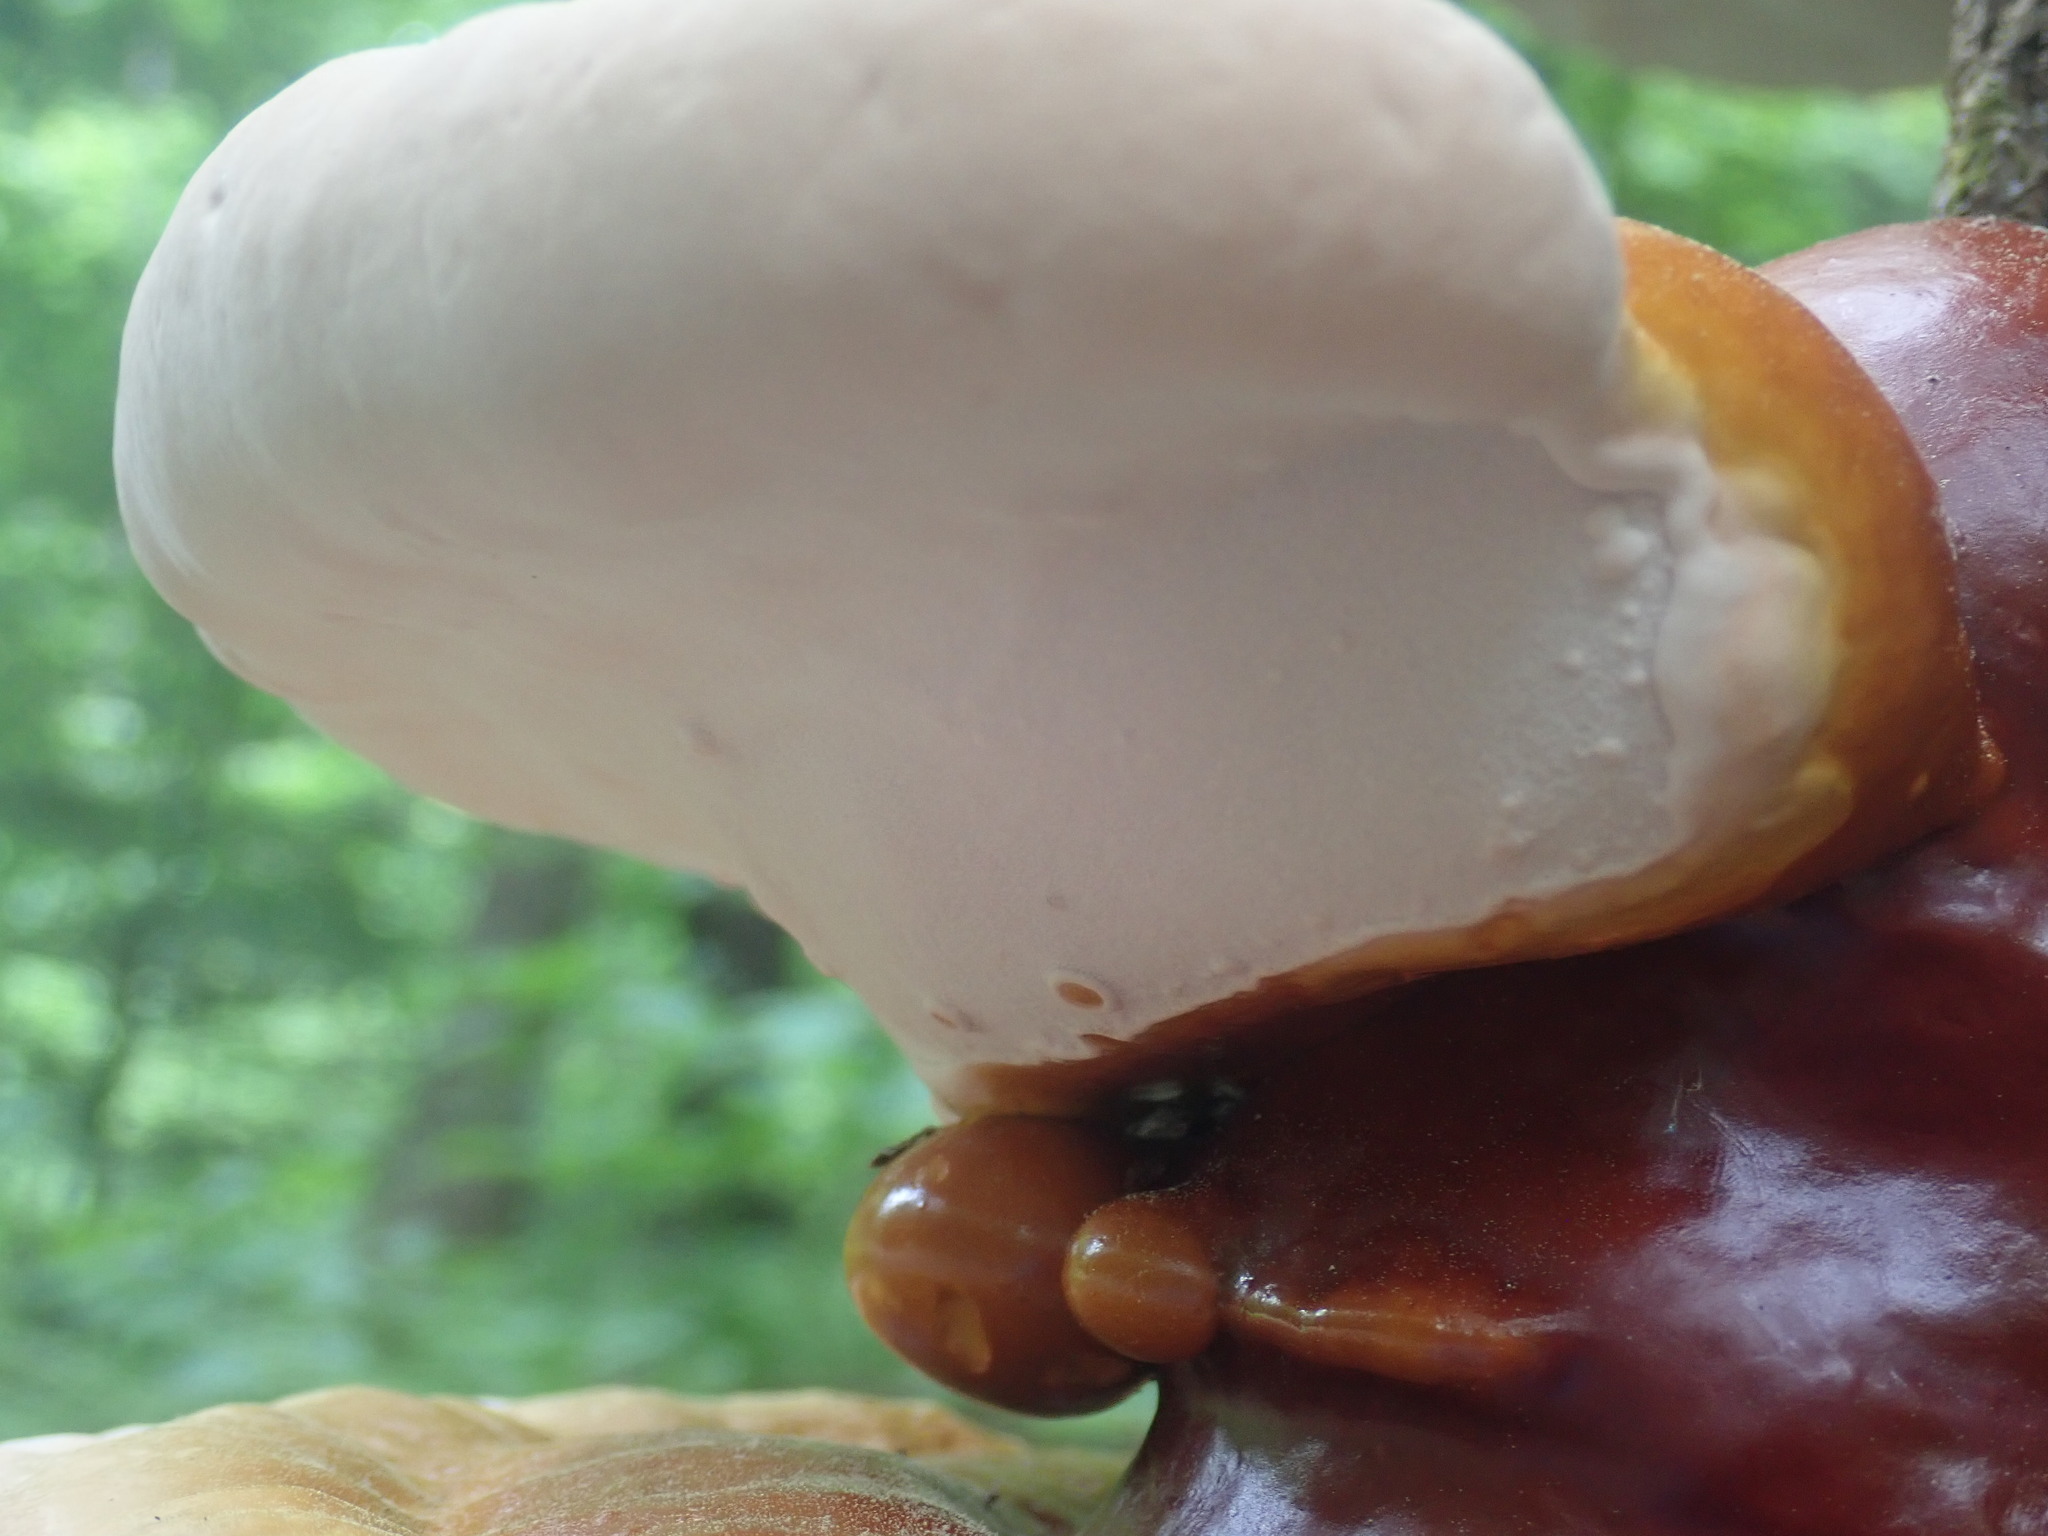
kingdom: Fungi
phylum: Basidiomycota
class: Agaricomycetes
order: Polyporales
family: Polyporaceae
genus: Ganoderma
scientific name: Ganoderma tsugae
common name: Hemlock varnish shelf
